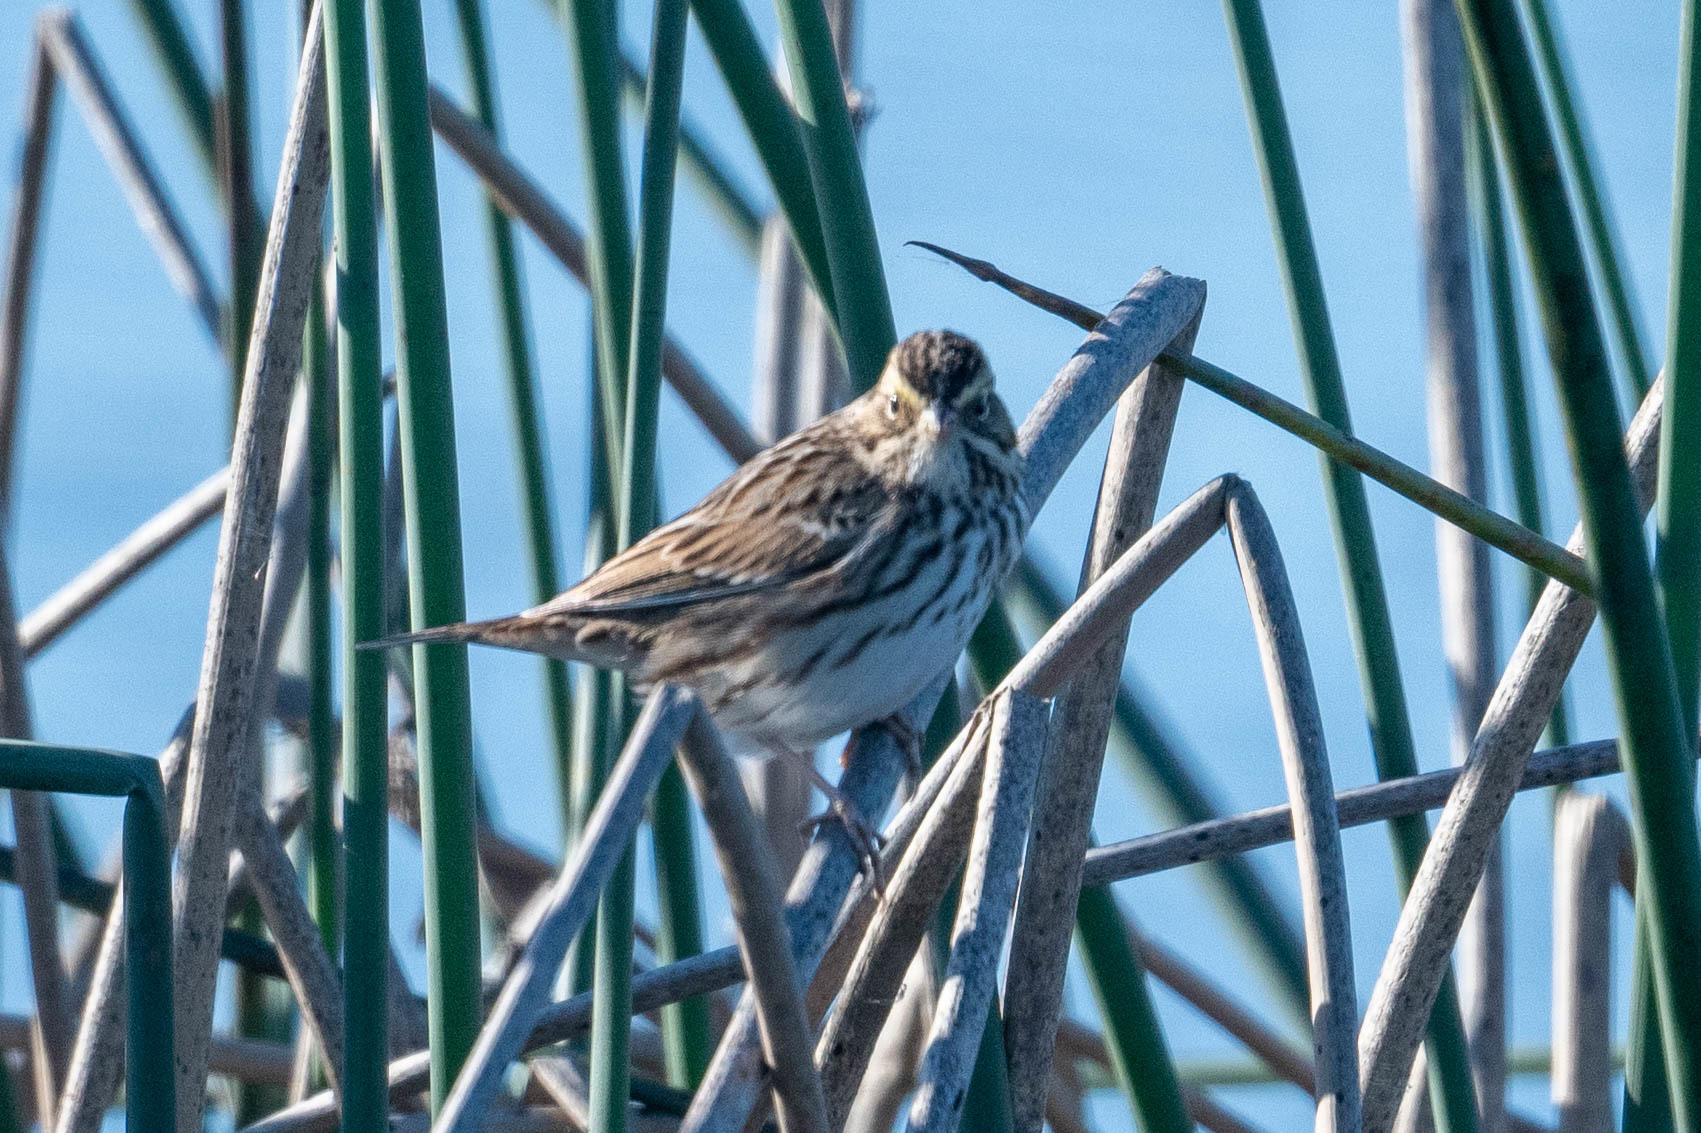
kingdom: Animalia
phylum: Chordata
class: Aves
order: Passeriformes
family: Passerellidae
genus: Passerculus
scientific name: Passerculus sandwichensis
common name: Savannah sparrow
